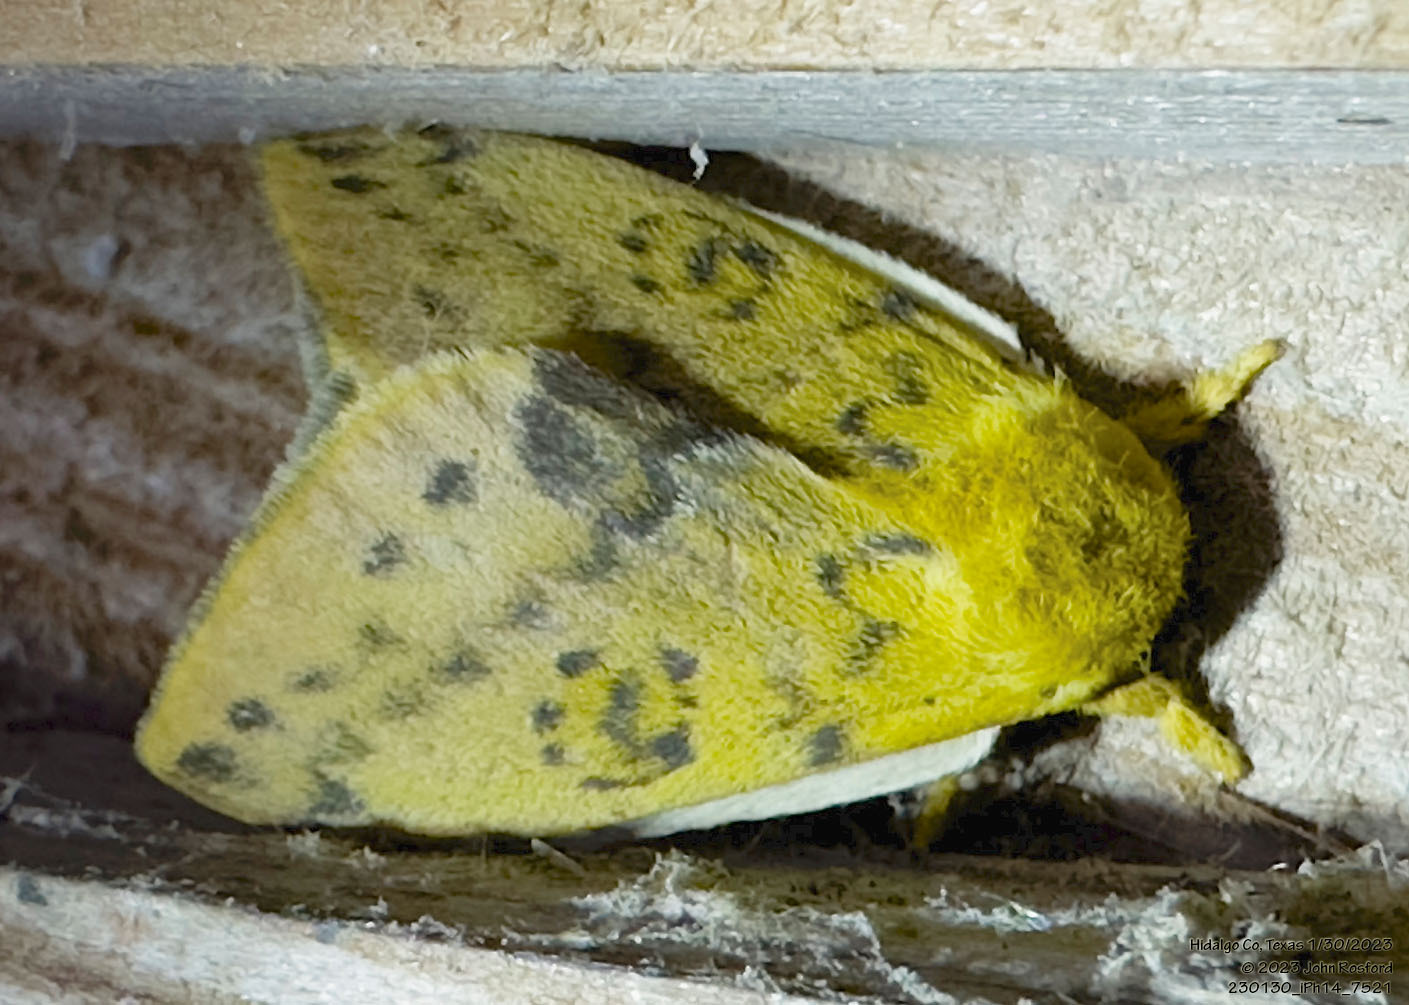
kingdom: Animalia
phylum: Arthropoda
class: Insecta
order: Lepidoptera
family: Saturniidae
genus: Automeris
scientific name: Automeris io
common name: Io moth
